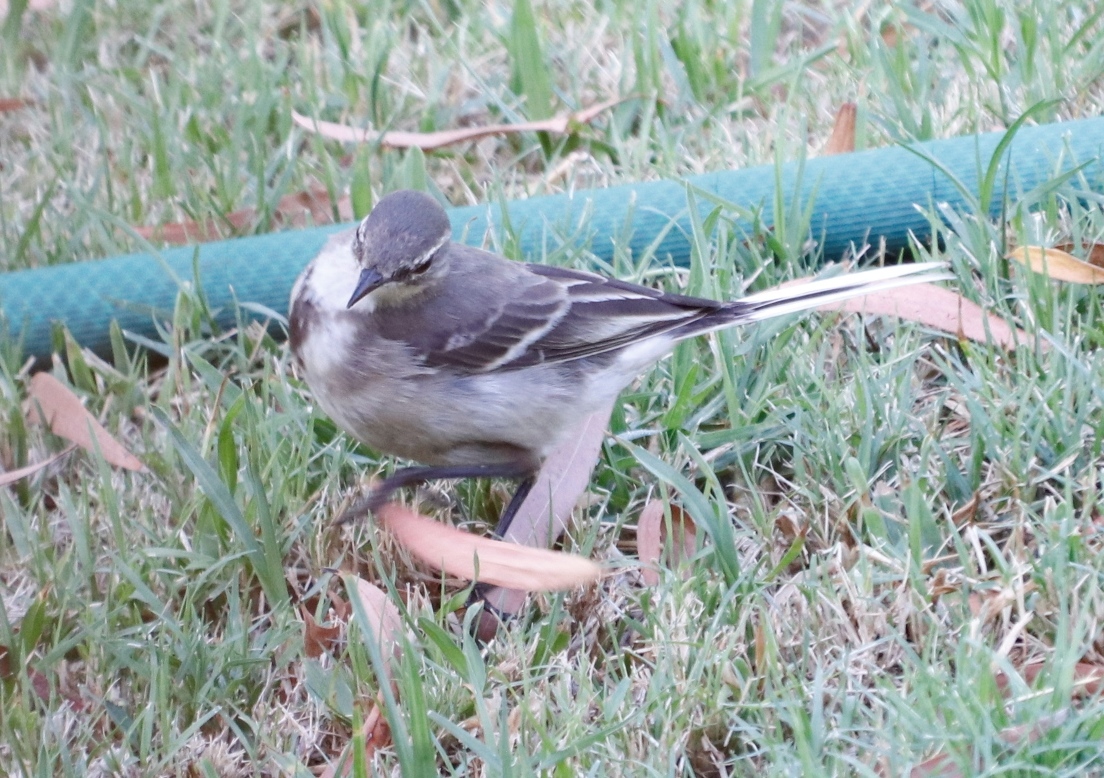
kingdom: Animalia
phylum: Chordata
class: Aves
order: Passeriformes
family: Motacillidae
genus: Motacilla
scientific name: Motacilla capensis
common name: Cape wagtail
